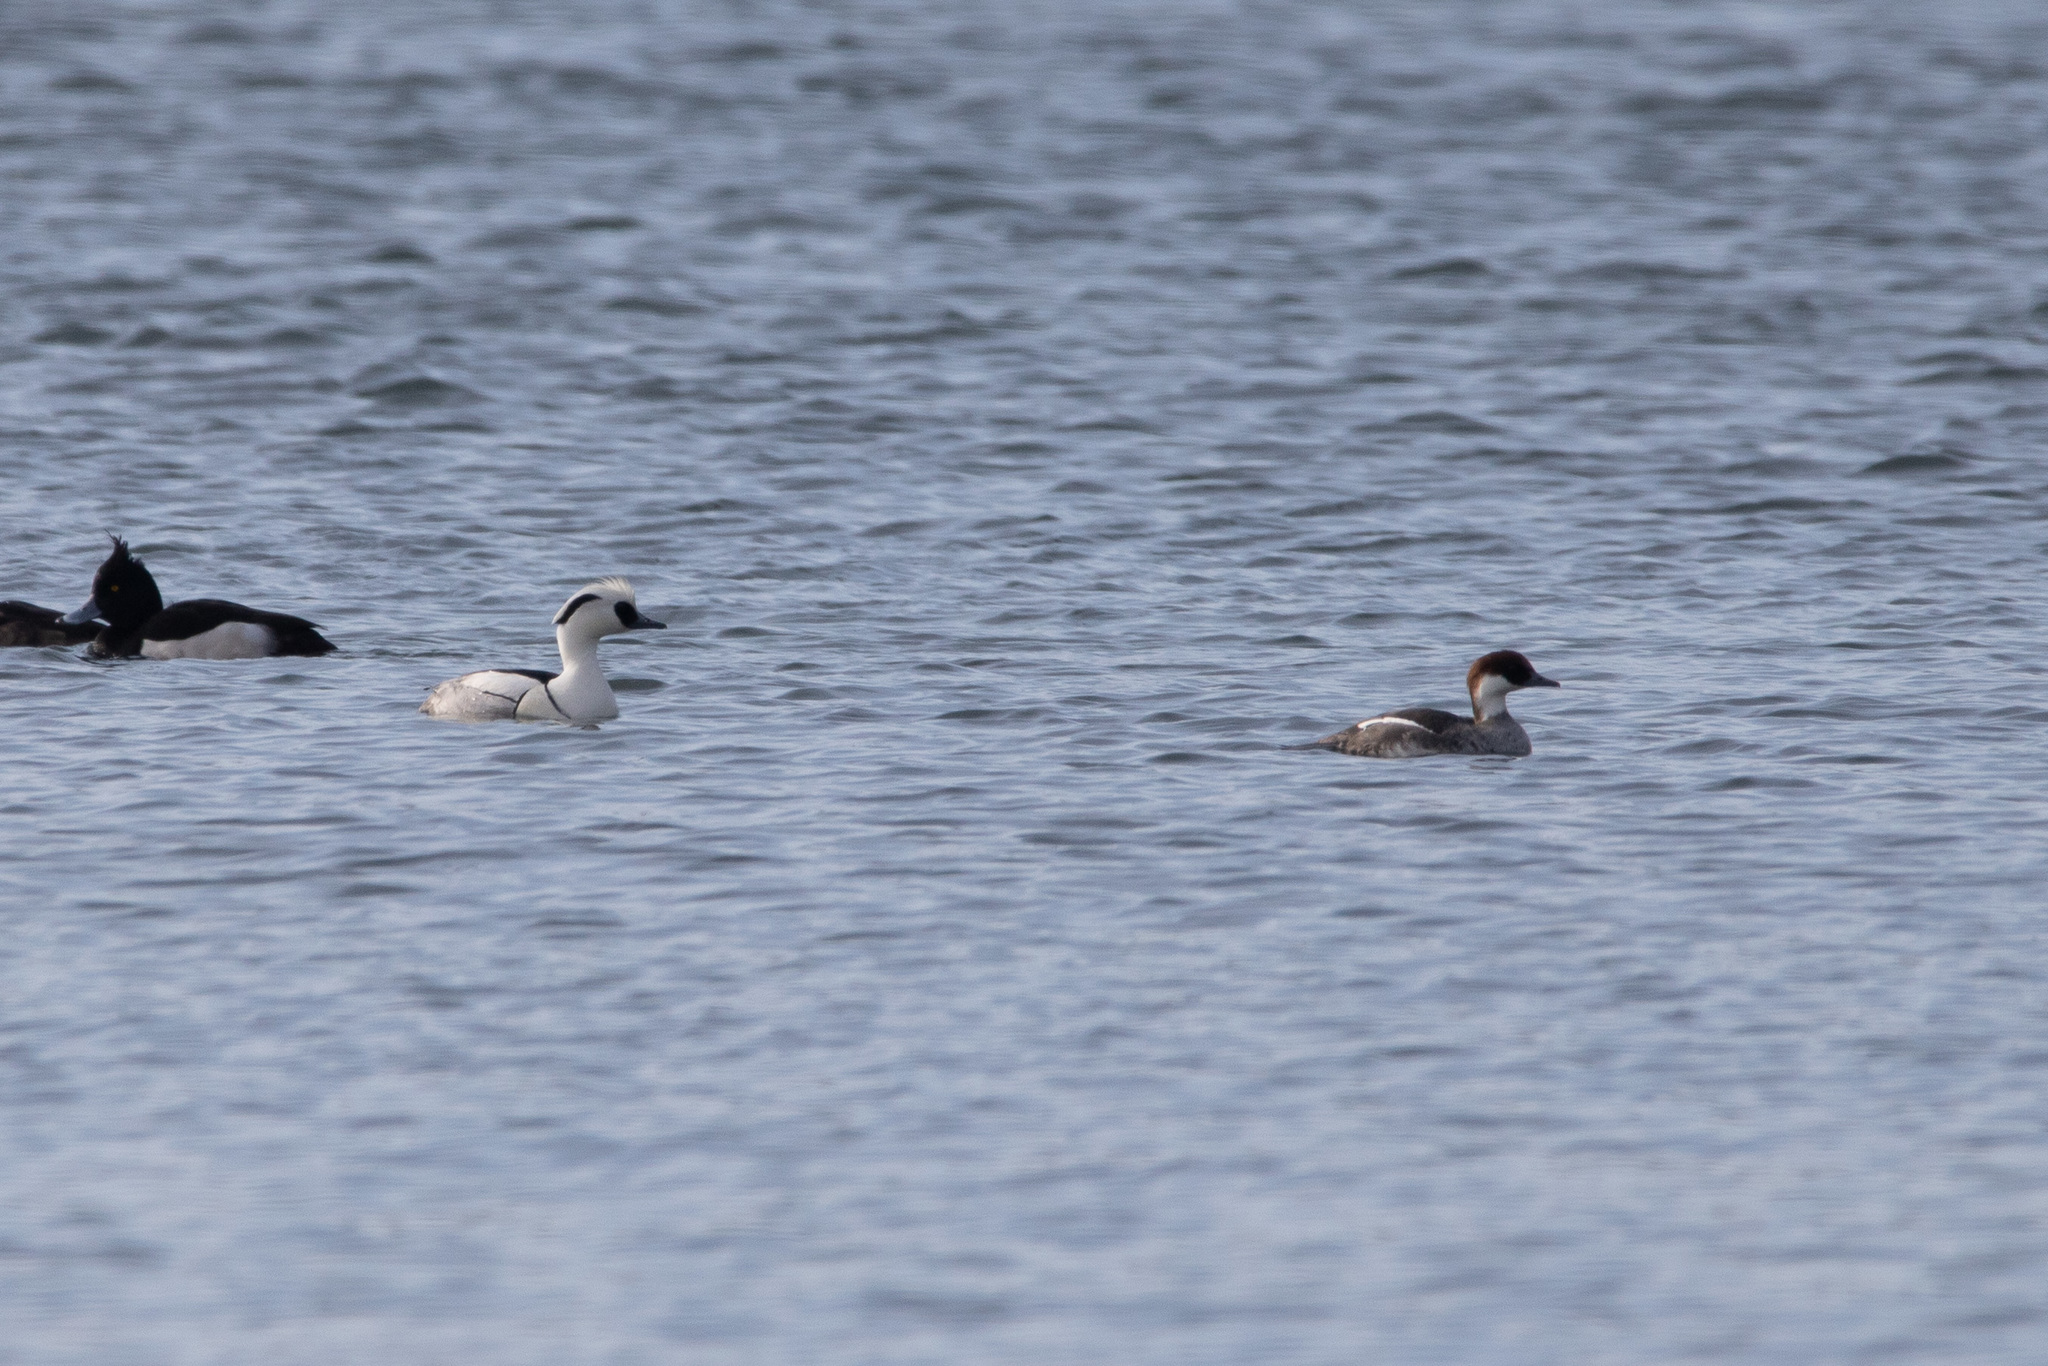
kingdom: Animalia
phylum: Chordata
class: Aves
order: Anseriformes
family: Anatidae
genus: Mergellus
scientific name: Mergellus albellus
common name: Smew
